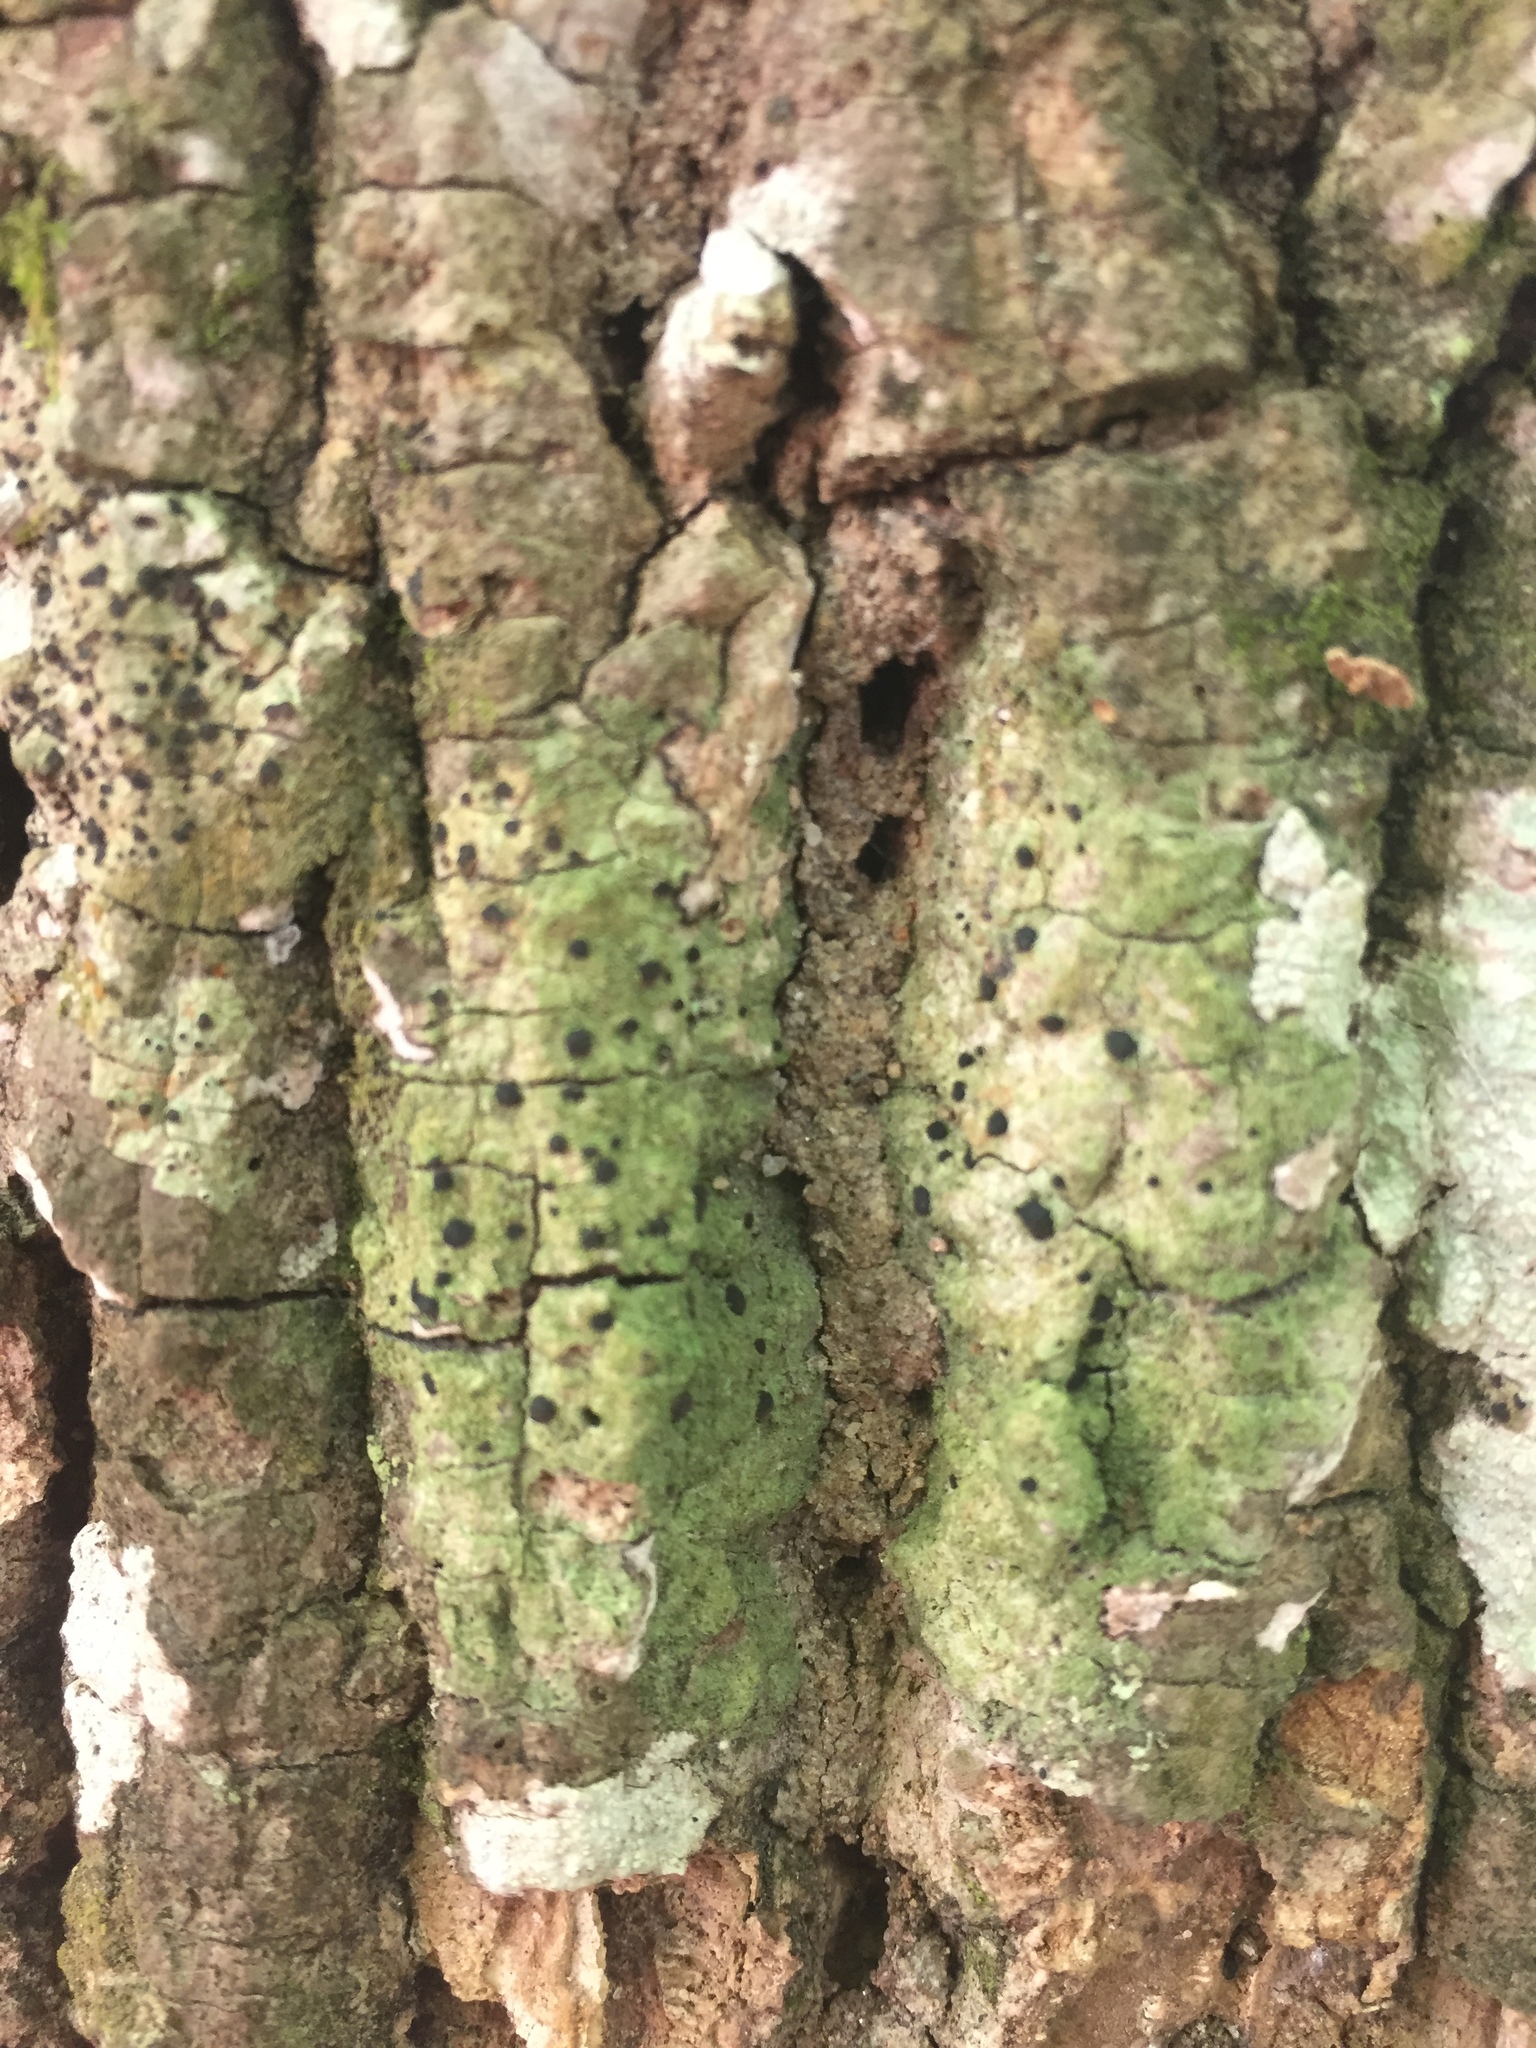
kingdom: Fungi
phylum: Ascomycota
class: Lecanoromycetes
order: Lecanorales
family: Ramalinaceae
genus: Bacidia
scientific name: Bacidia schweinitzii
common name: Surprise lichen
